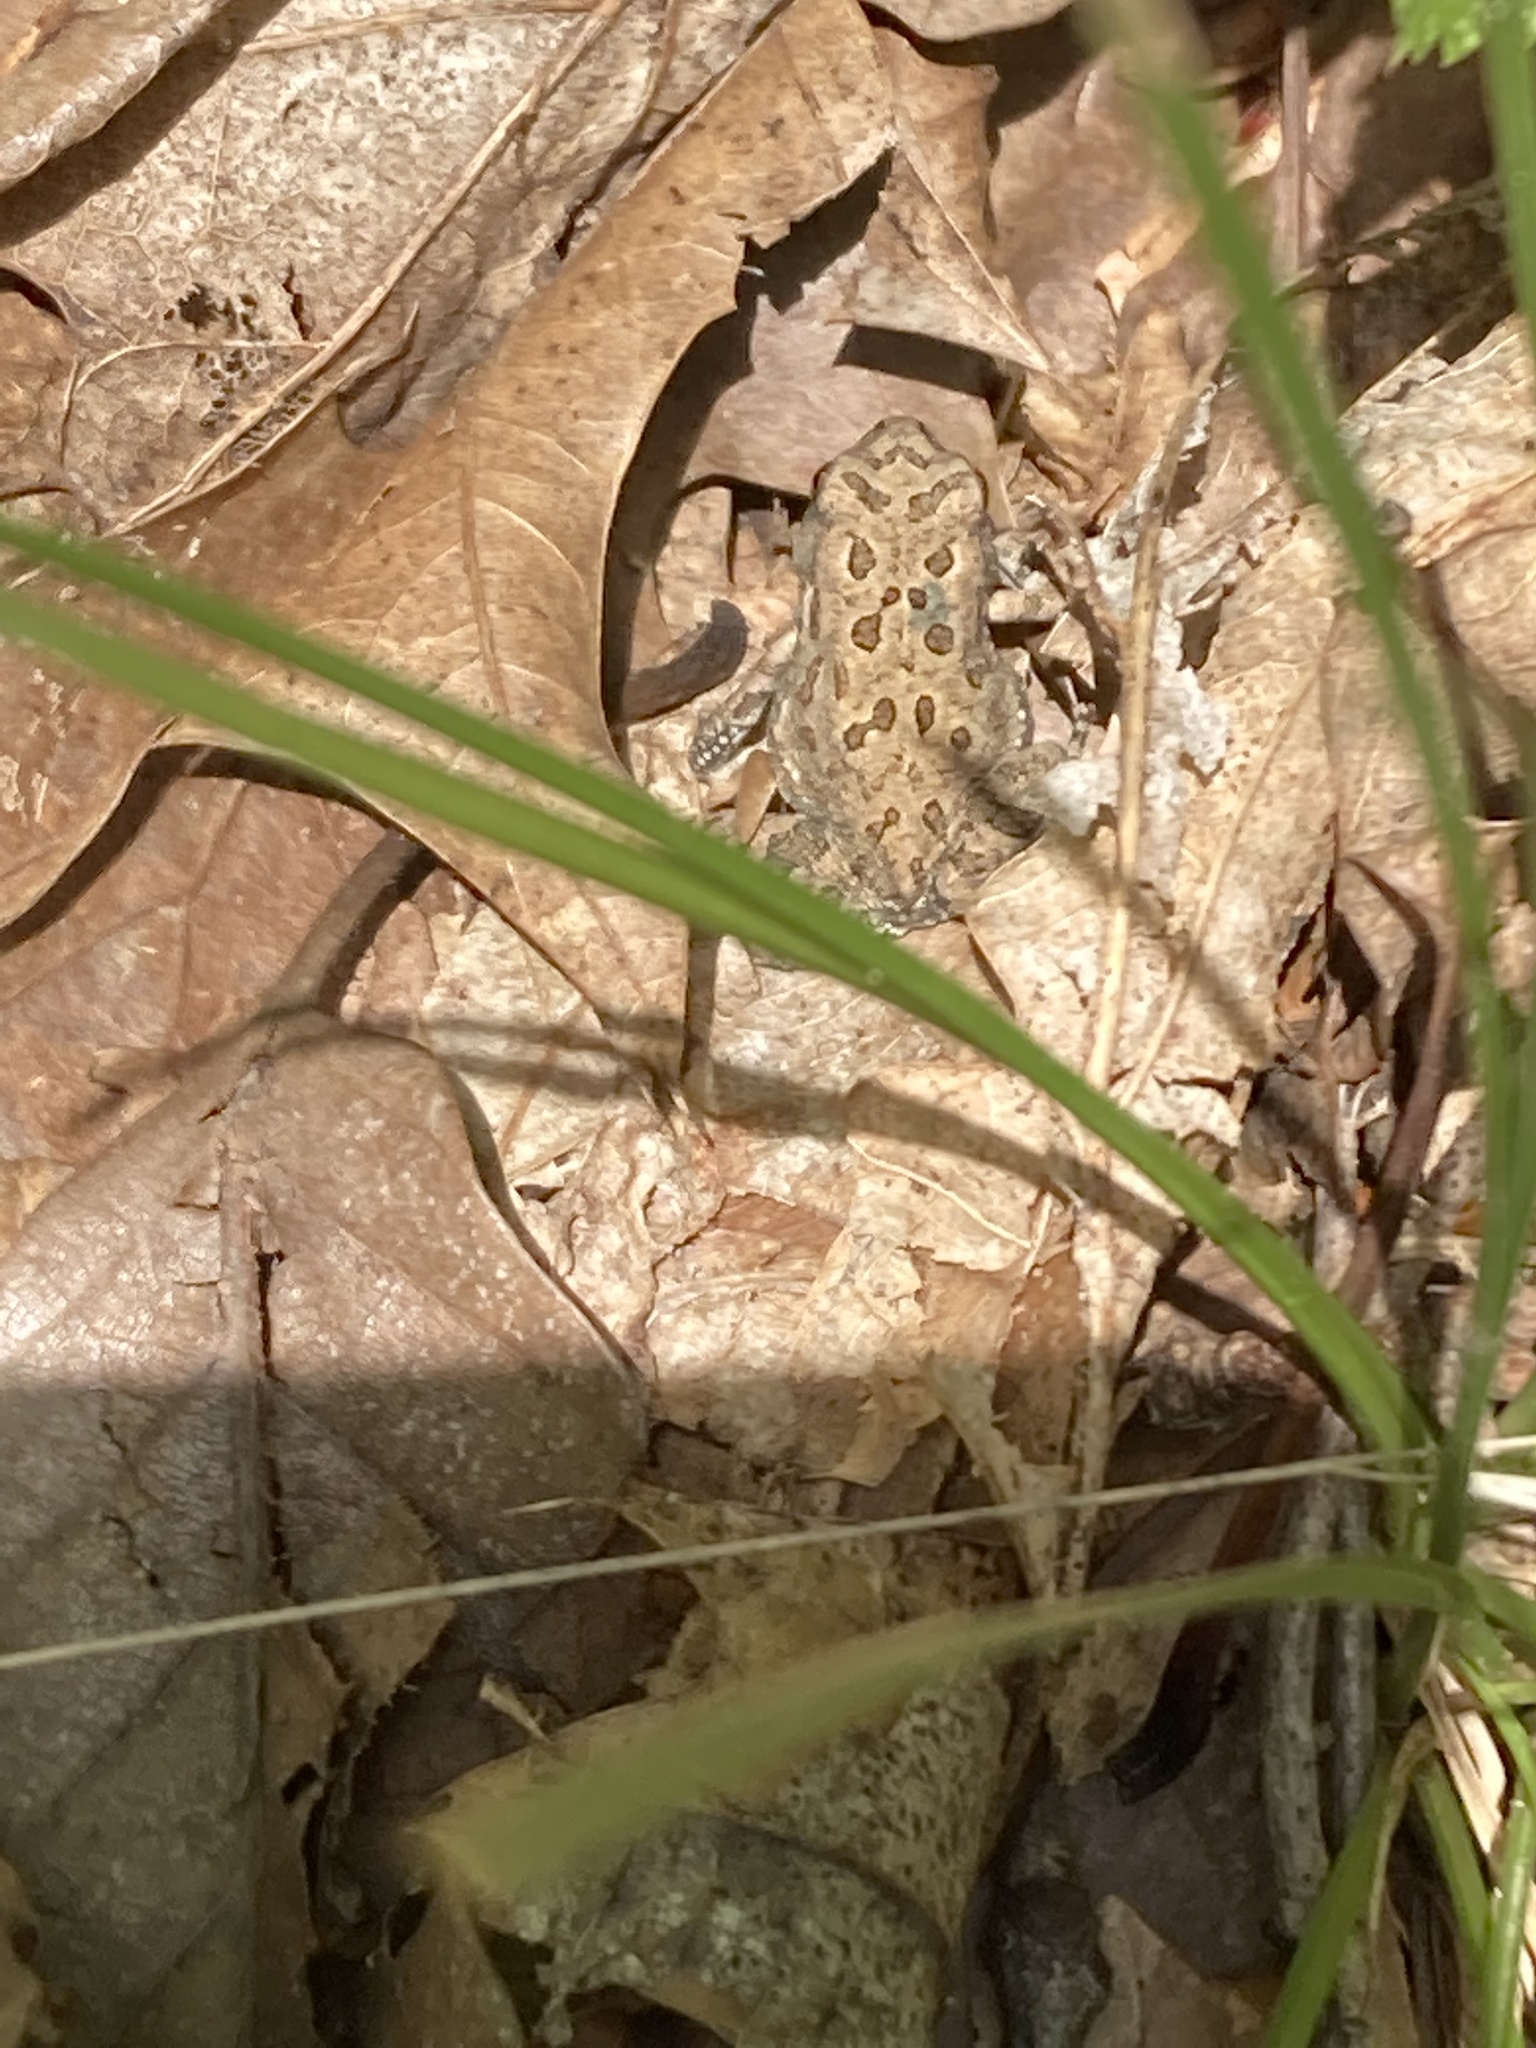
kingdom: Animalia
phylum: Chordata
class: Amphibia
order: Anura
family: Bufonidae
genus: Anaxyrus
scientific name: Anaxyrus fowleri
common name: Fowler's toad
